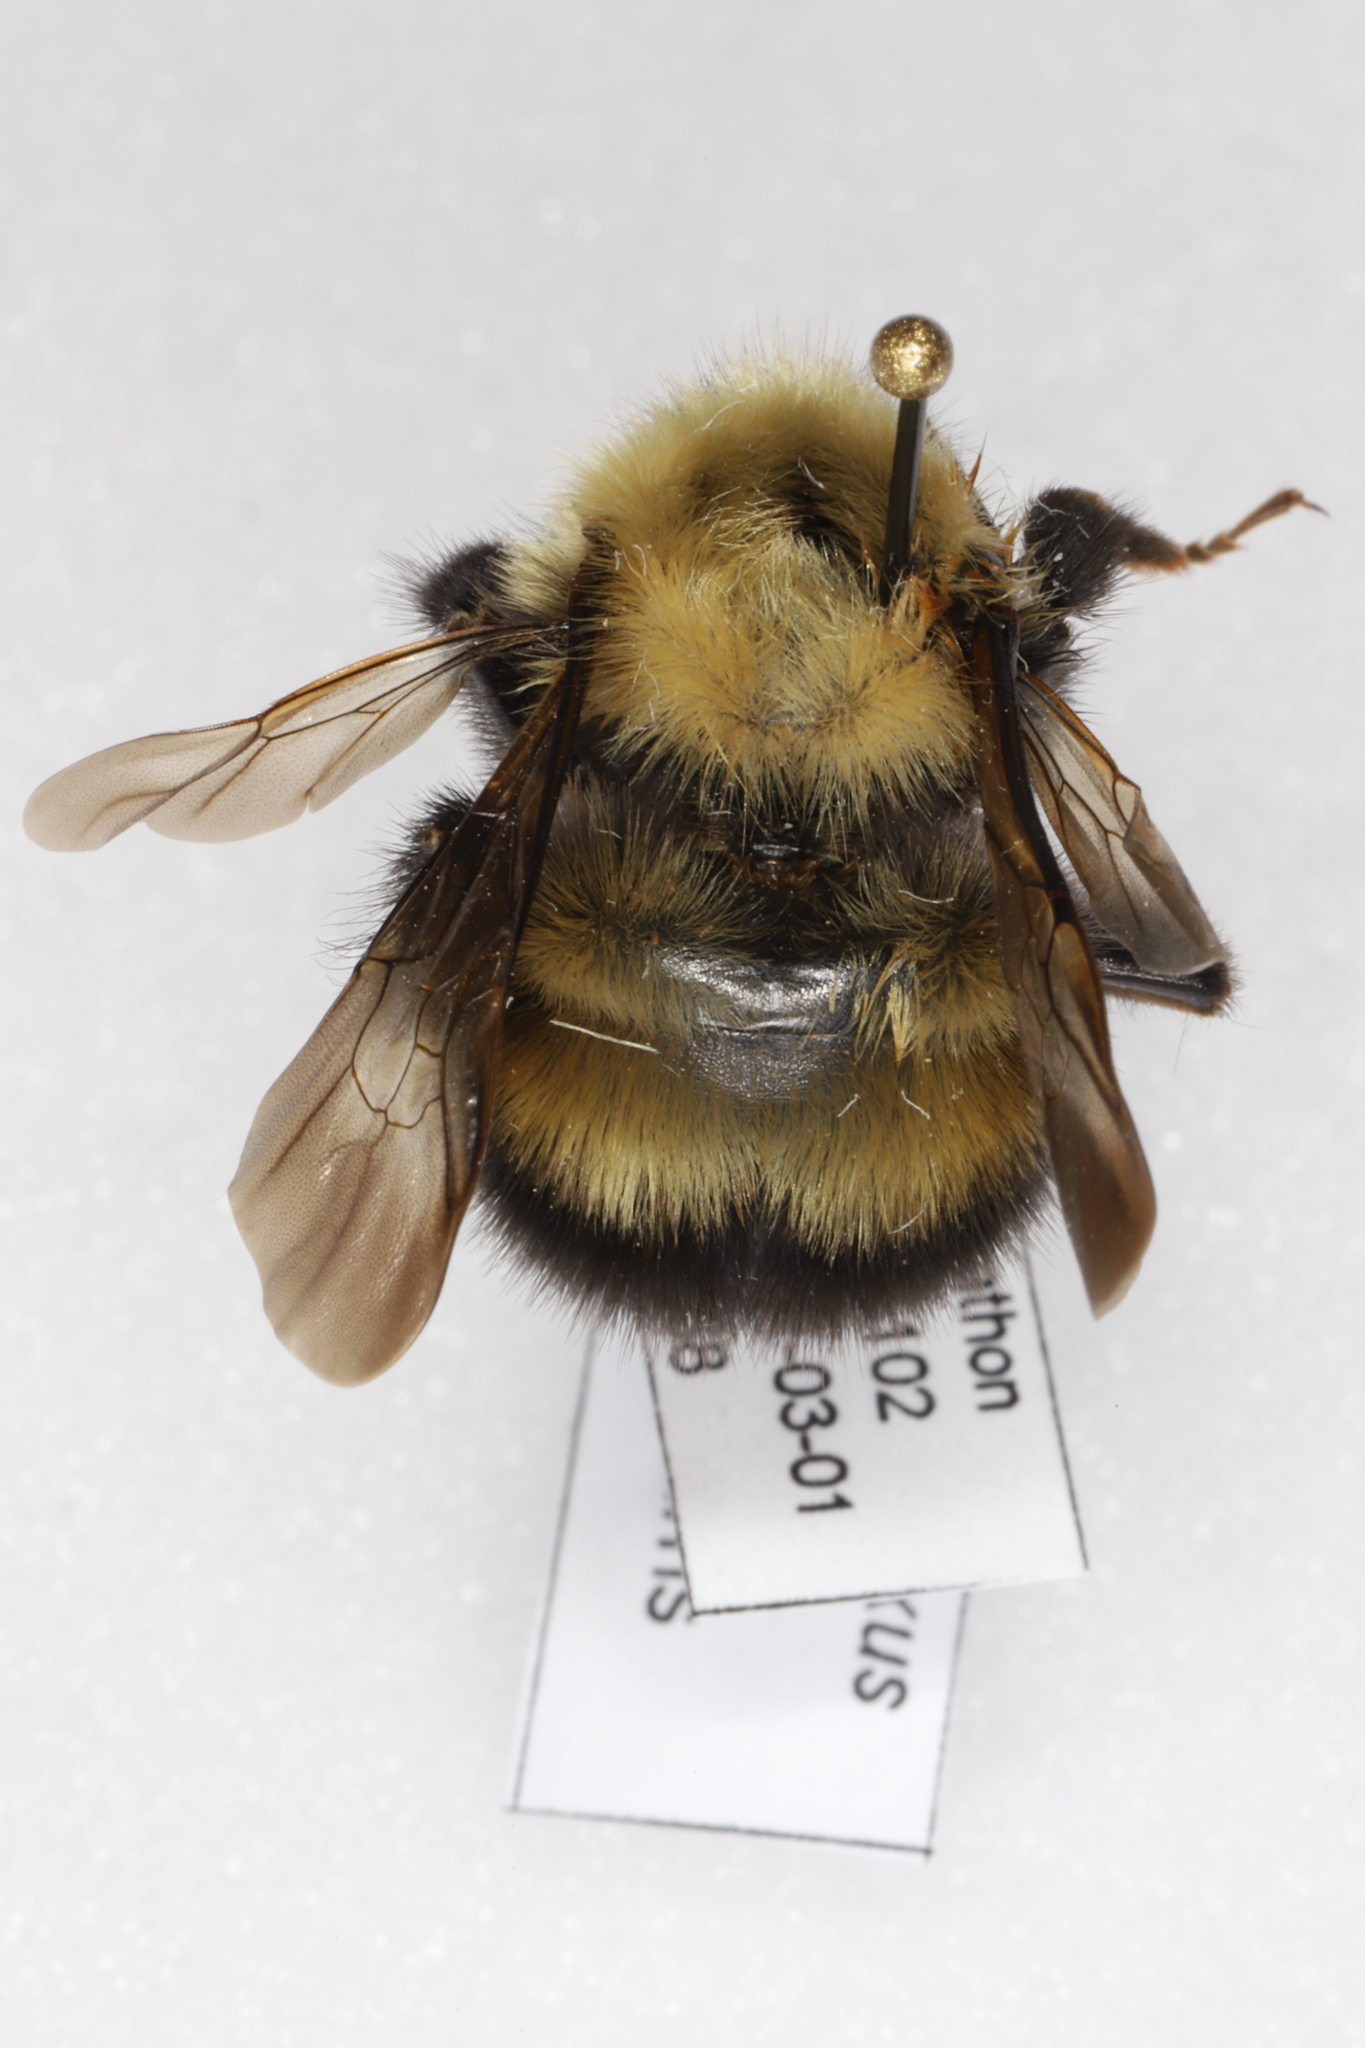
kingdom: Animalia
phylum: Arthropoda
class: Insecta
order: Hymenoptera
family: Apidae
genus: Bombus
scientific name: Bombus perplexus
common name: Confusing bumble bee
